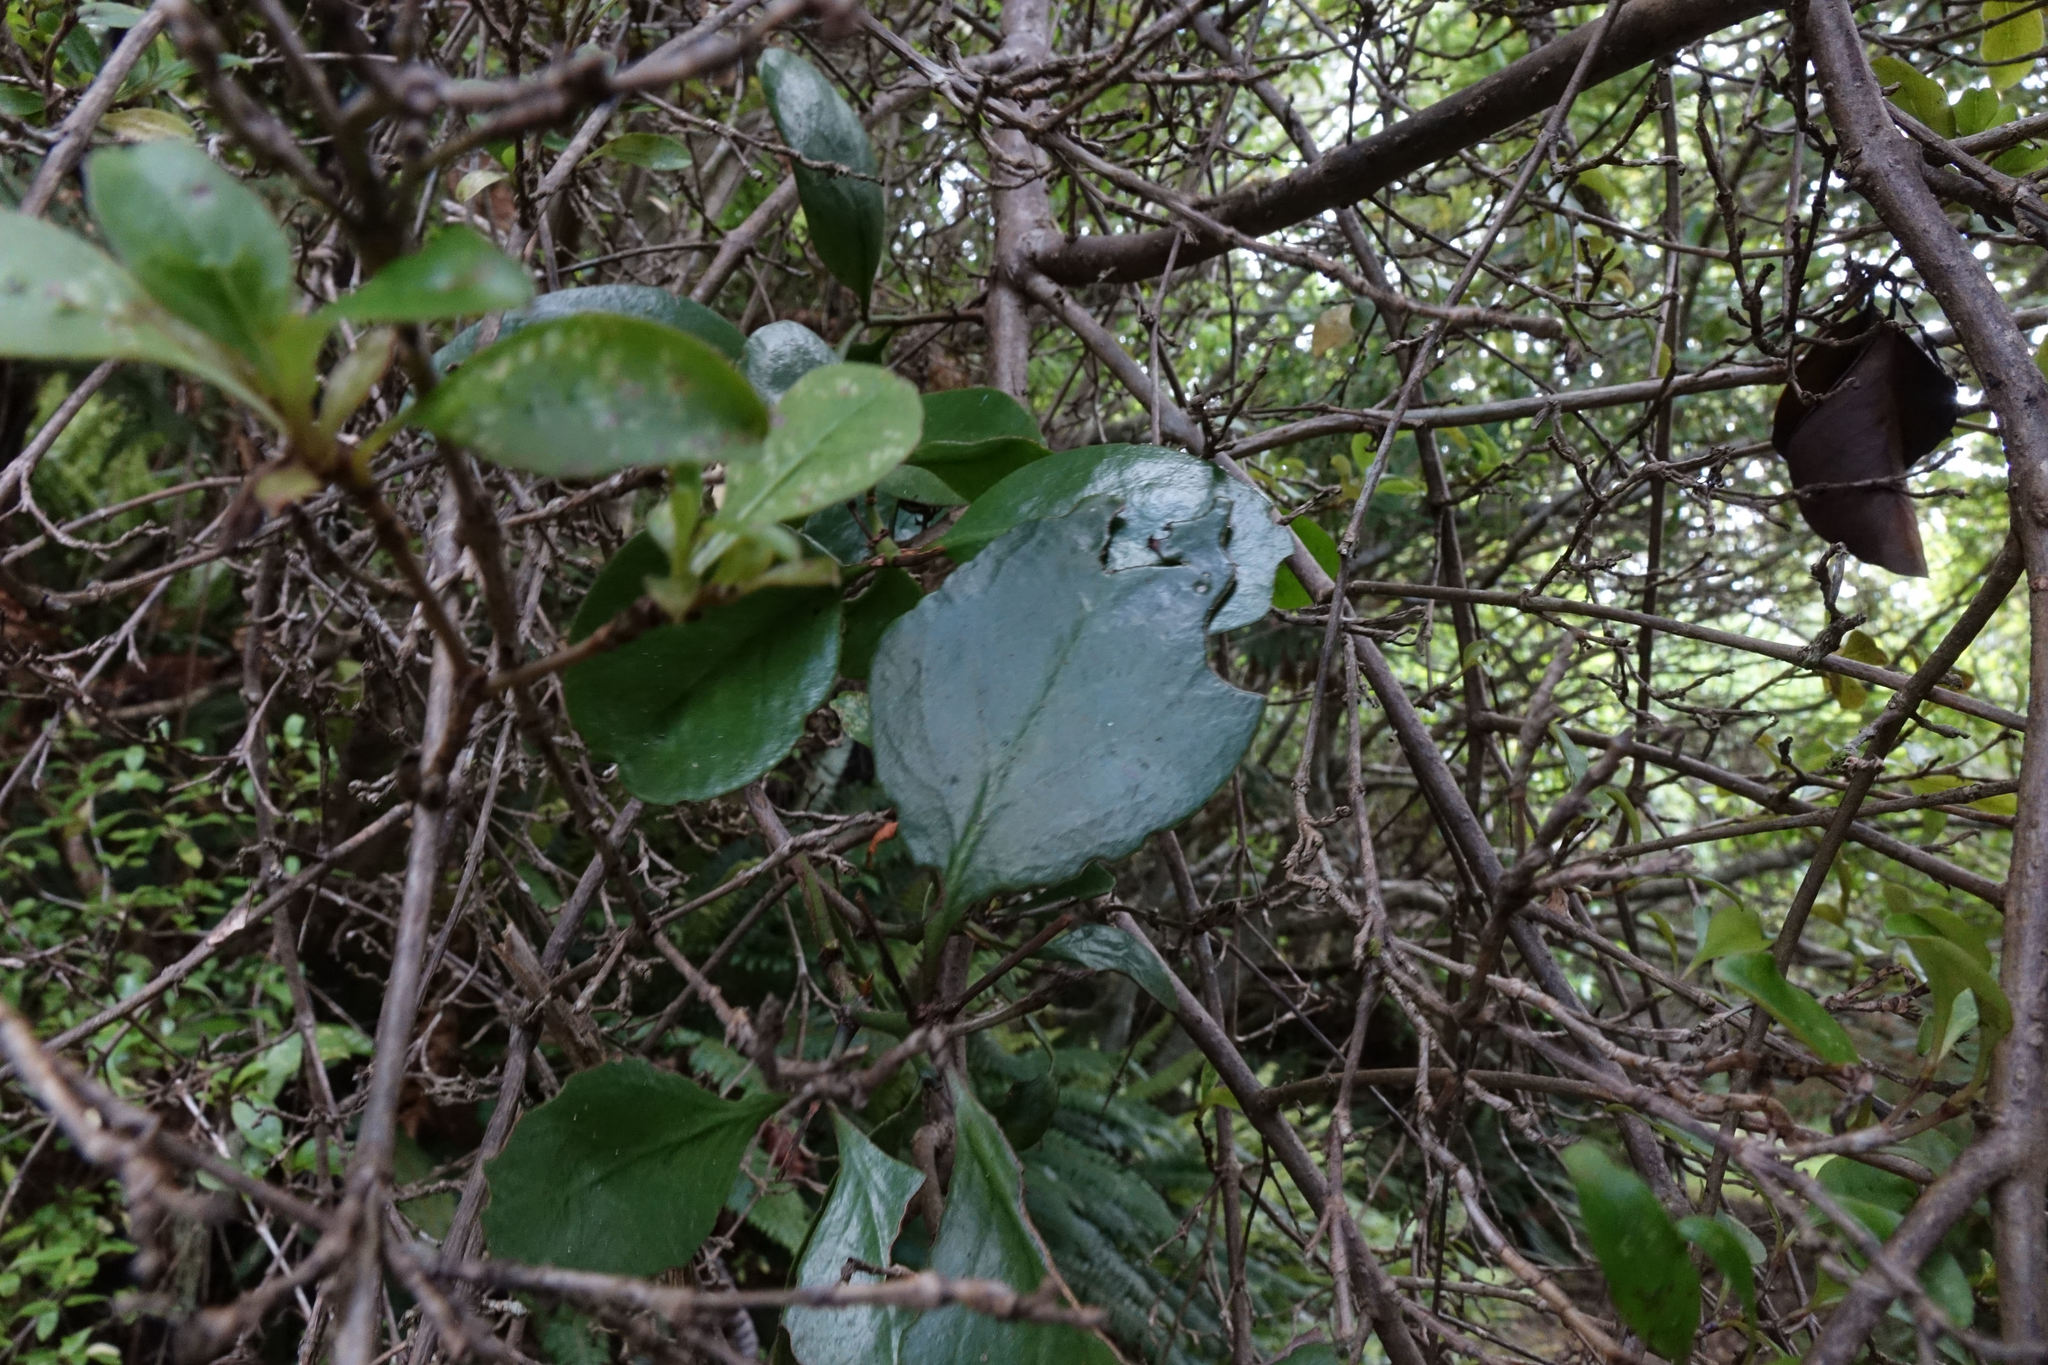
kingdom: Plantae
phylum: Tracheophyta
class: Magnoliopsida
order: Santalales
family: Loranthaceae
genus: Ileostylus
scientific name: Ileostylus micranthus
